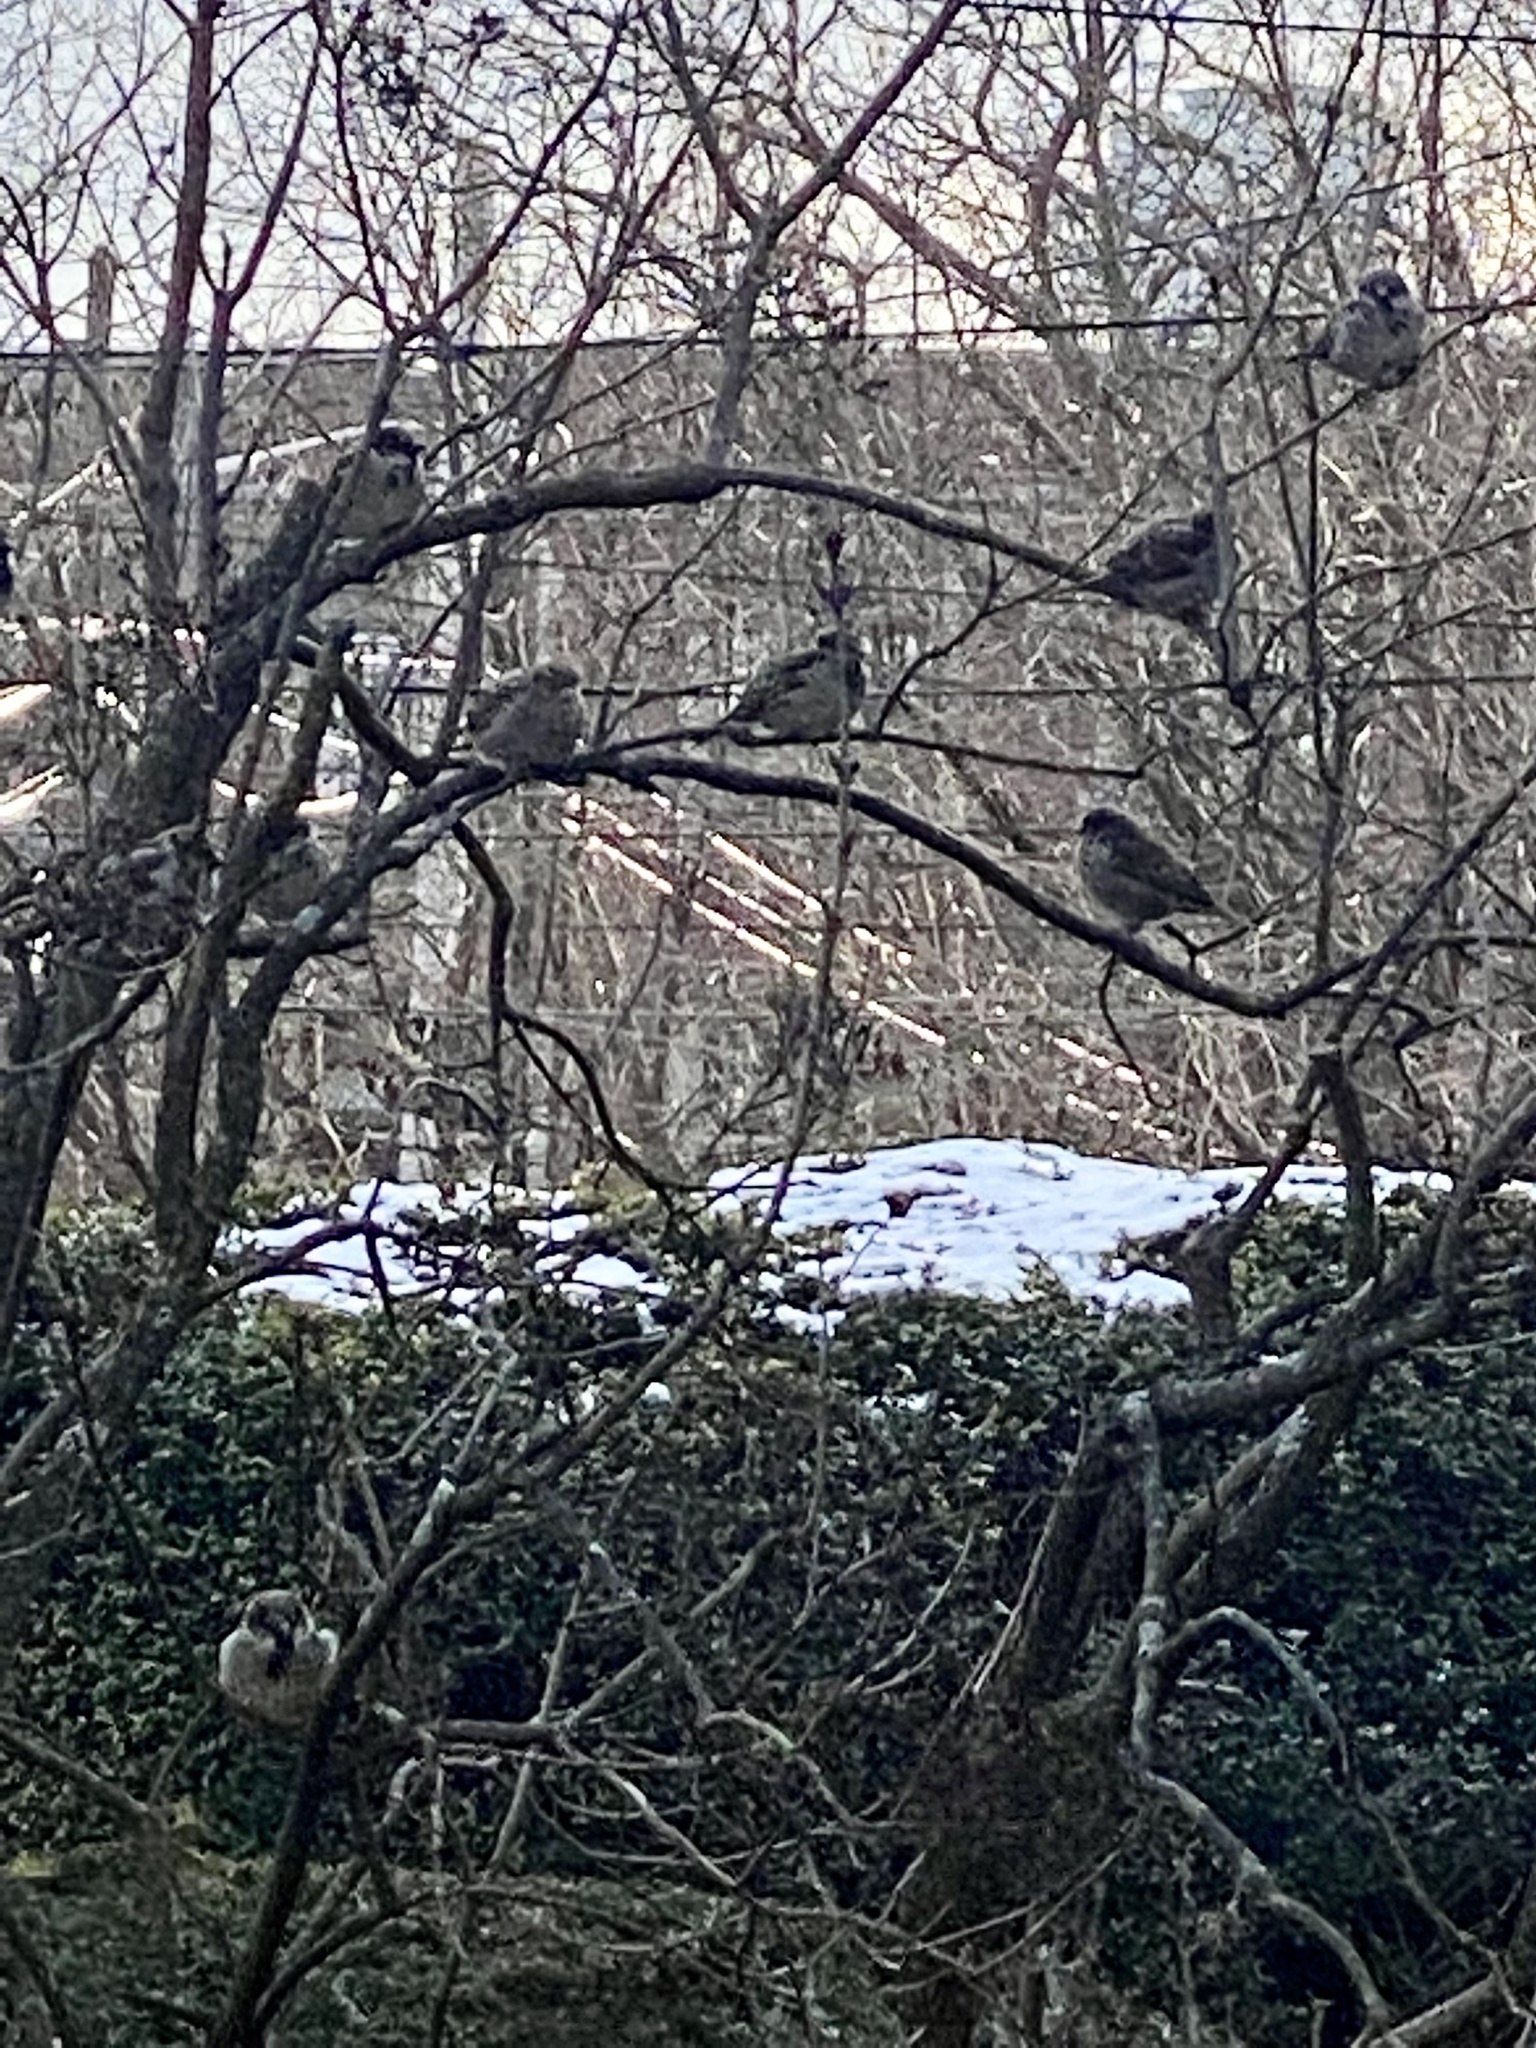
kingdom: Animalia
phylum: Chordata
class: Aves
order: Passeriformes
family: Passeridae
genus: Passer
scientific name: Passer domesticus
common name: House sparrow
